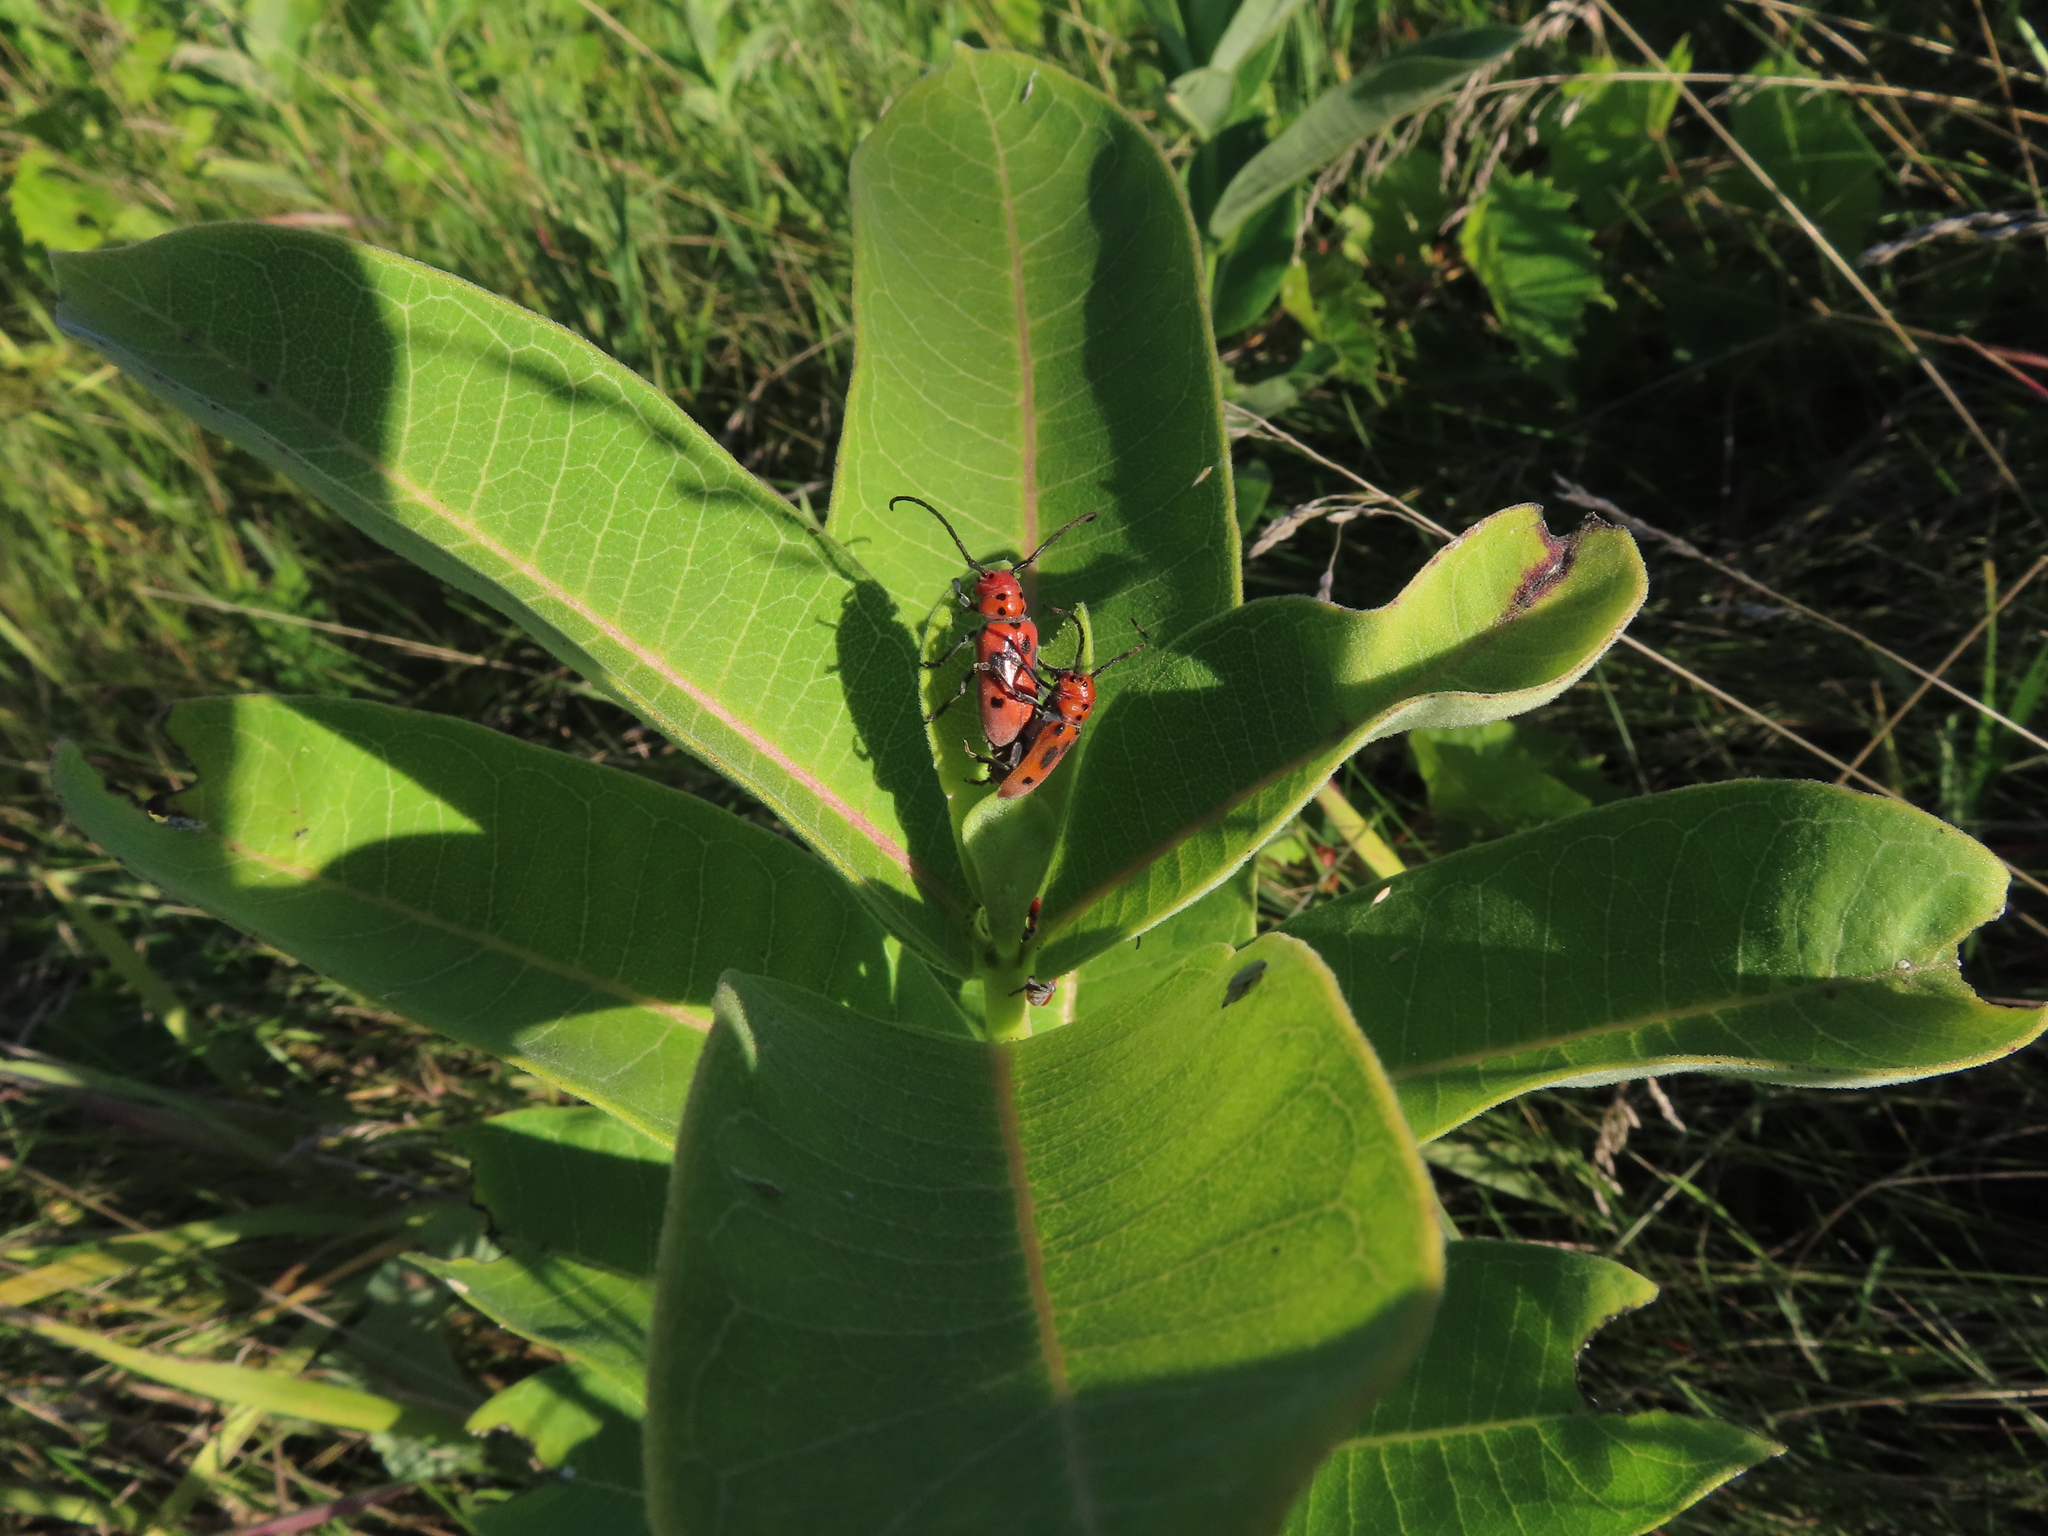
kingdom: Animalia
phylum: Arthropoda
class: Insecta
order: Coleoptera
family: Cerambycidae
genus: Tetraopes
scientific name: Tetraopes tetrophthalmus
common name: Red milkweed beetle
